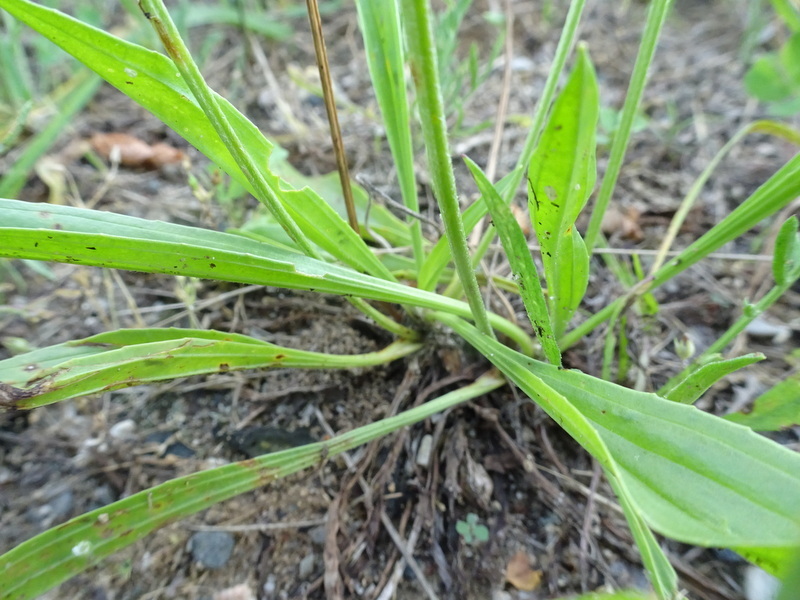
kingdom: Plantae
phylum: Tracheophyta
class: Magnoliopsida
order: Lamiales
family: Plantaginaceae
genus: Plantago
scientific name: Plantago lanceolata
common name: Ribwort plantain
